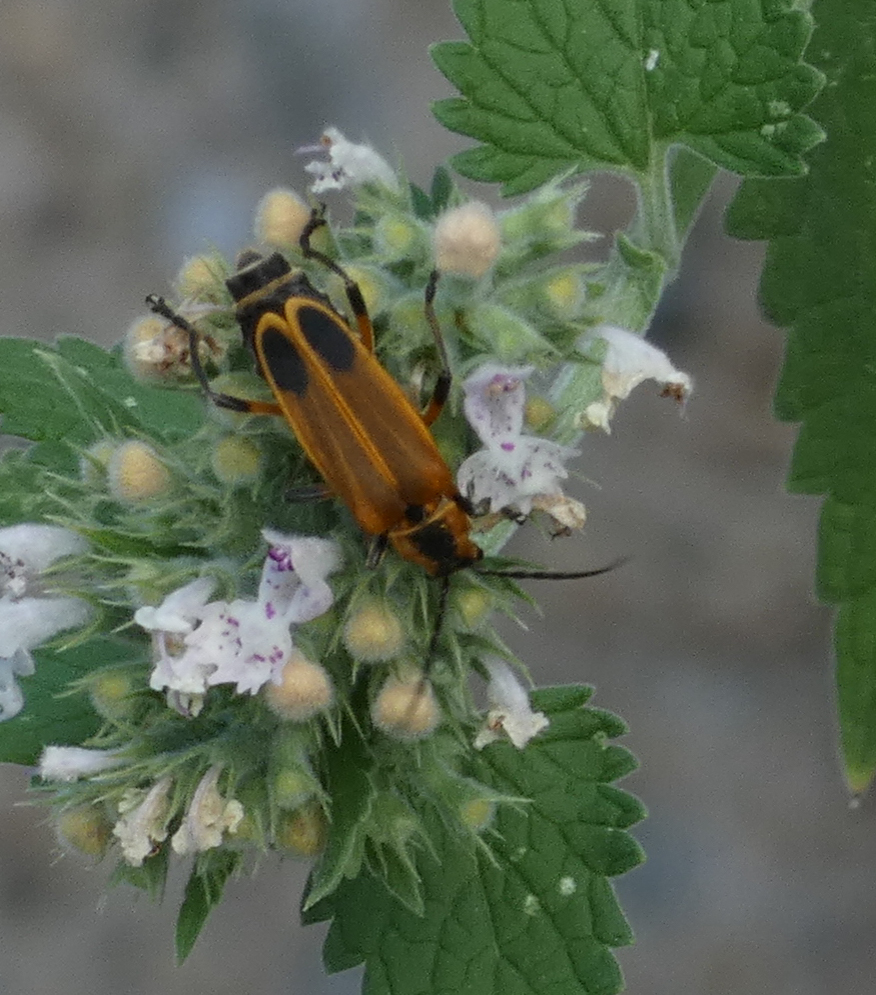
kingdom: Animalia
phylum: Arthropoda
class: Insecta
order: Coleoptera
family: Cantharidae
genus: Chauliognathus
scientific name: Chauliognathus marginatus
